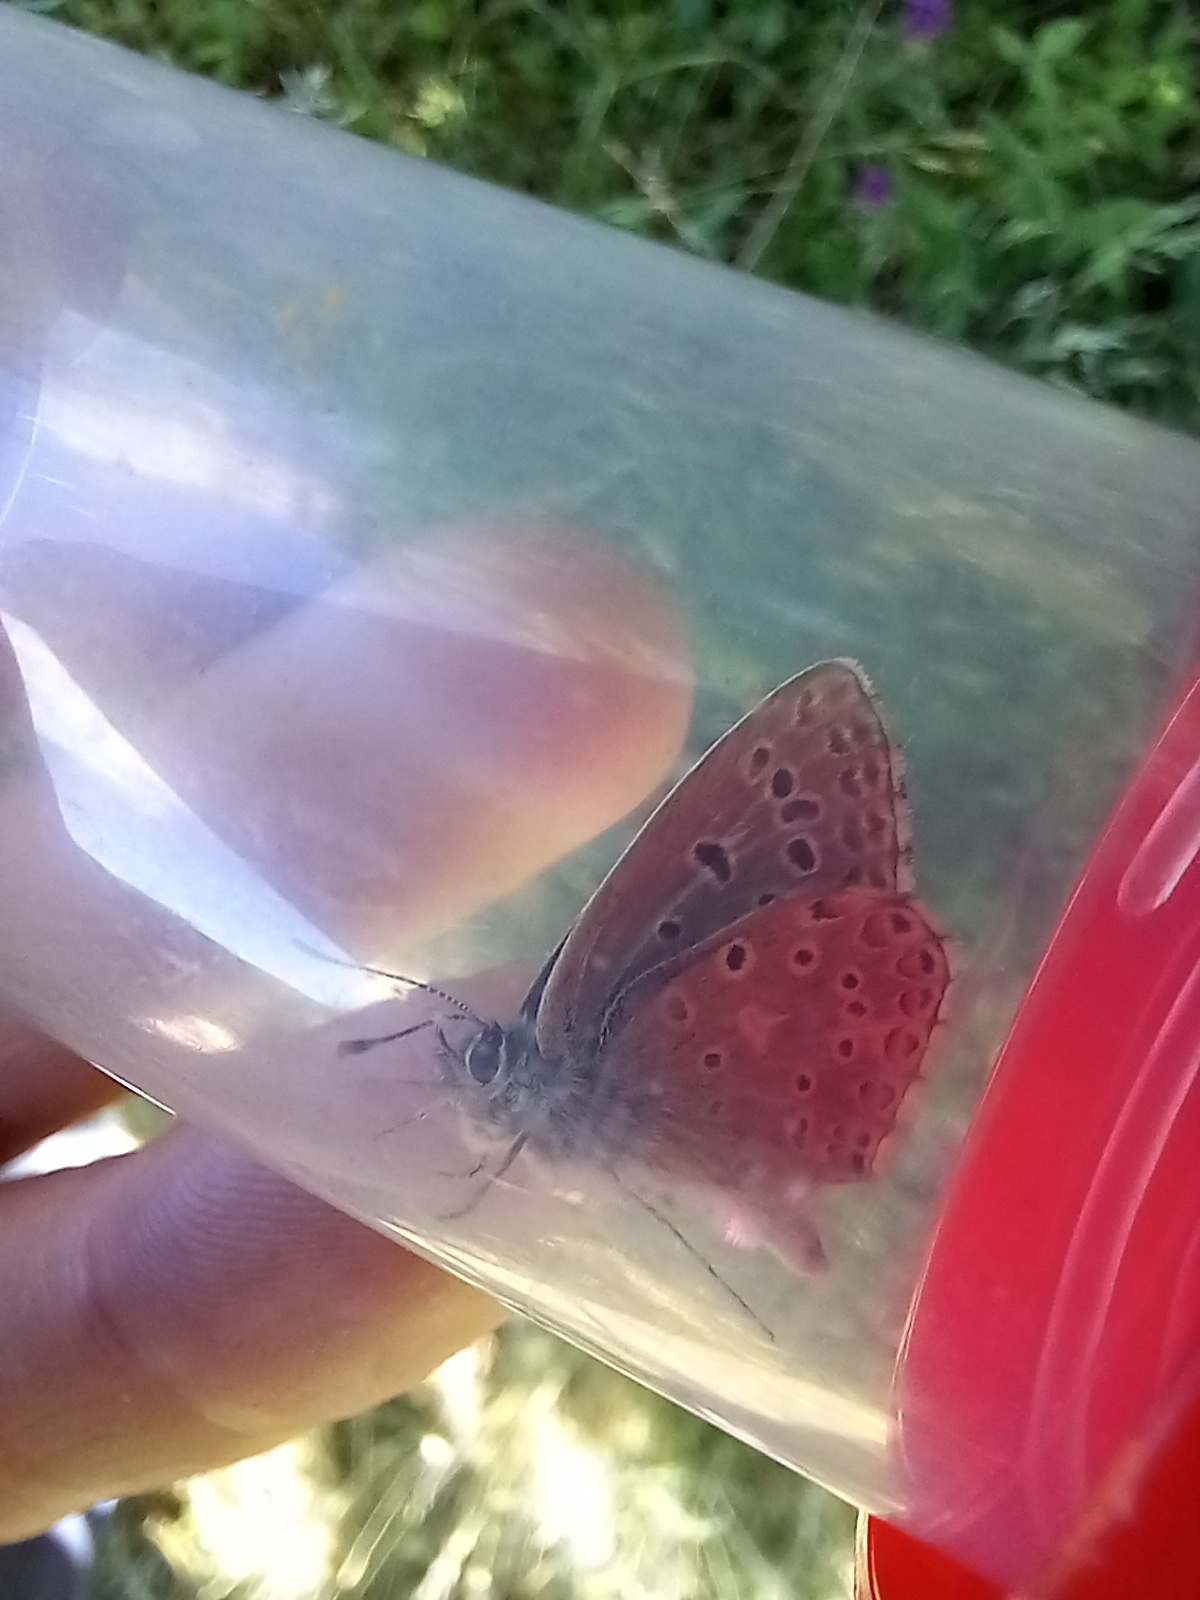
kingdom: Animalia
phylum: Arthropoda
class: Insecta
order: Lepidoptera
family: Lycaenidae
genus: Lysandra
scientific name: Lysandra bellargus
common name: Adonis blue
